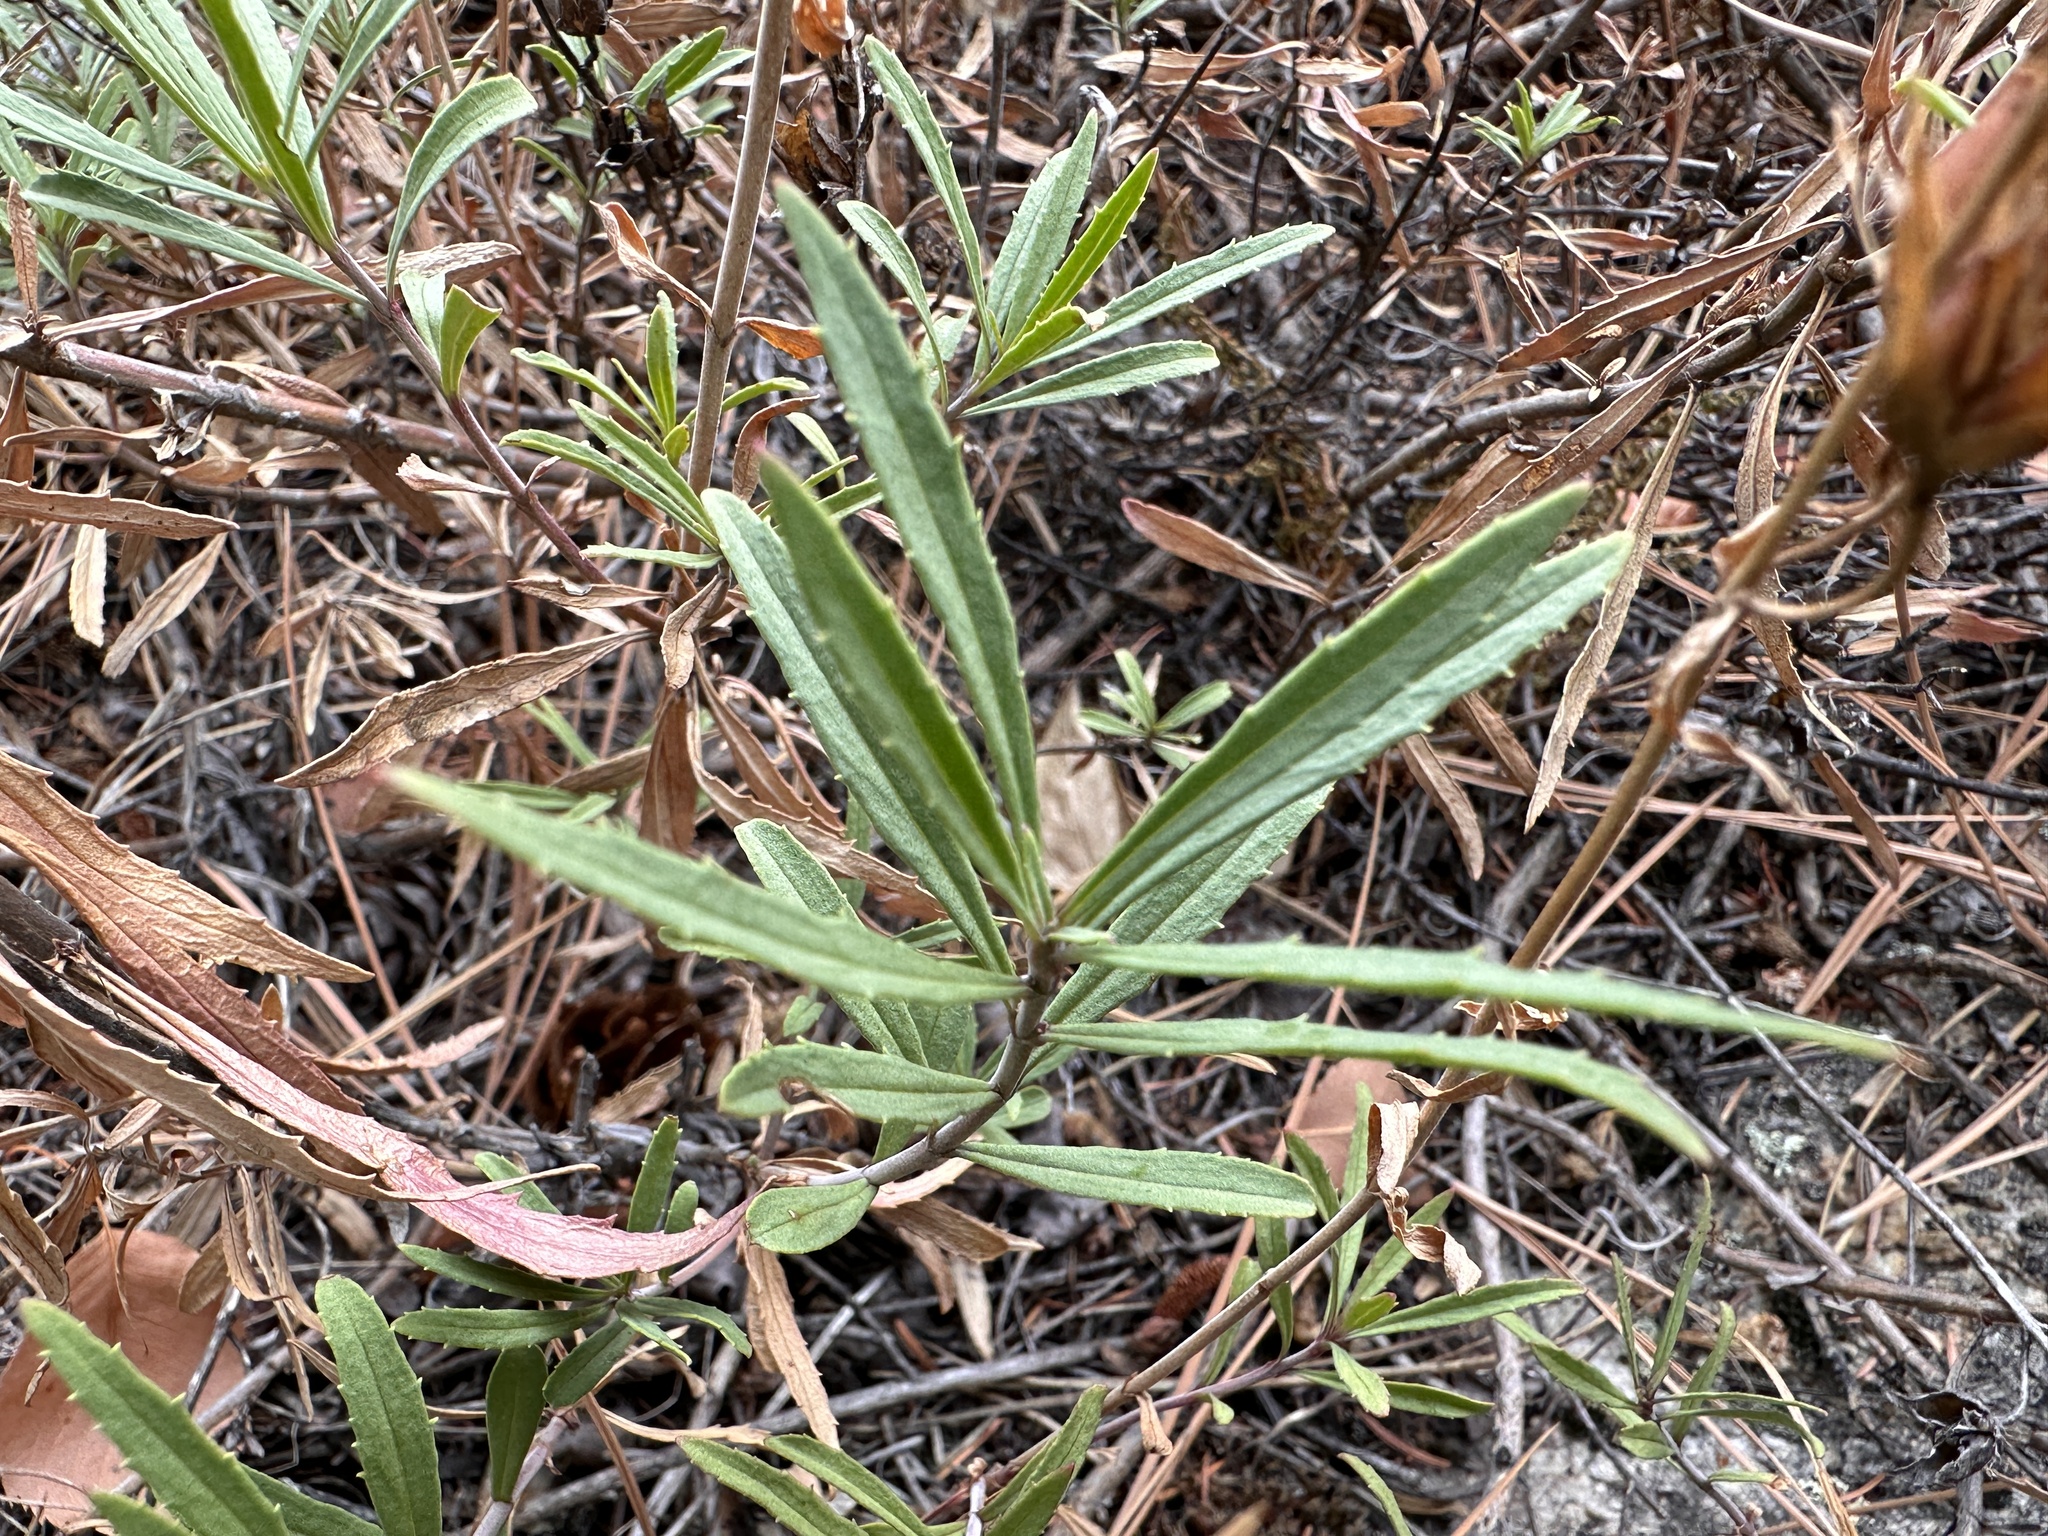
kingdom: Plantae
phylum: Tracheophyta
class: Magnoliopsida
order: Lamiales
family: Plantaginaceae
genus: Penstemon
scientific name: Penstemon fruticosus
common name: Bush penstemon
